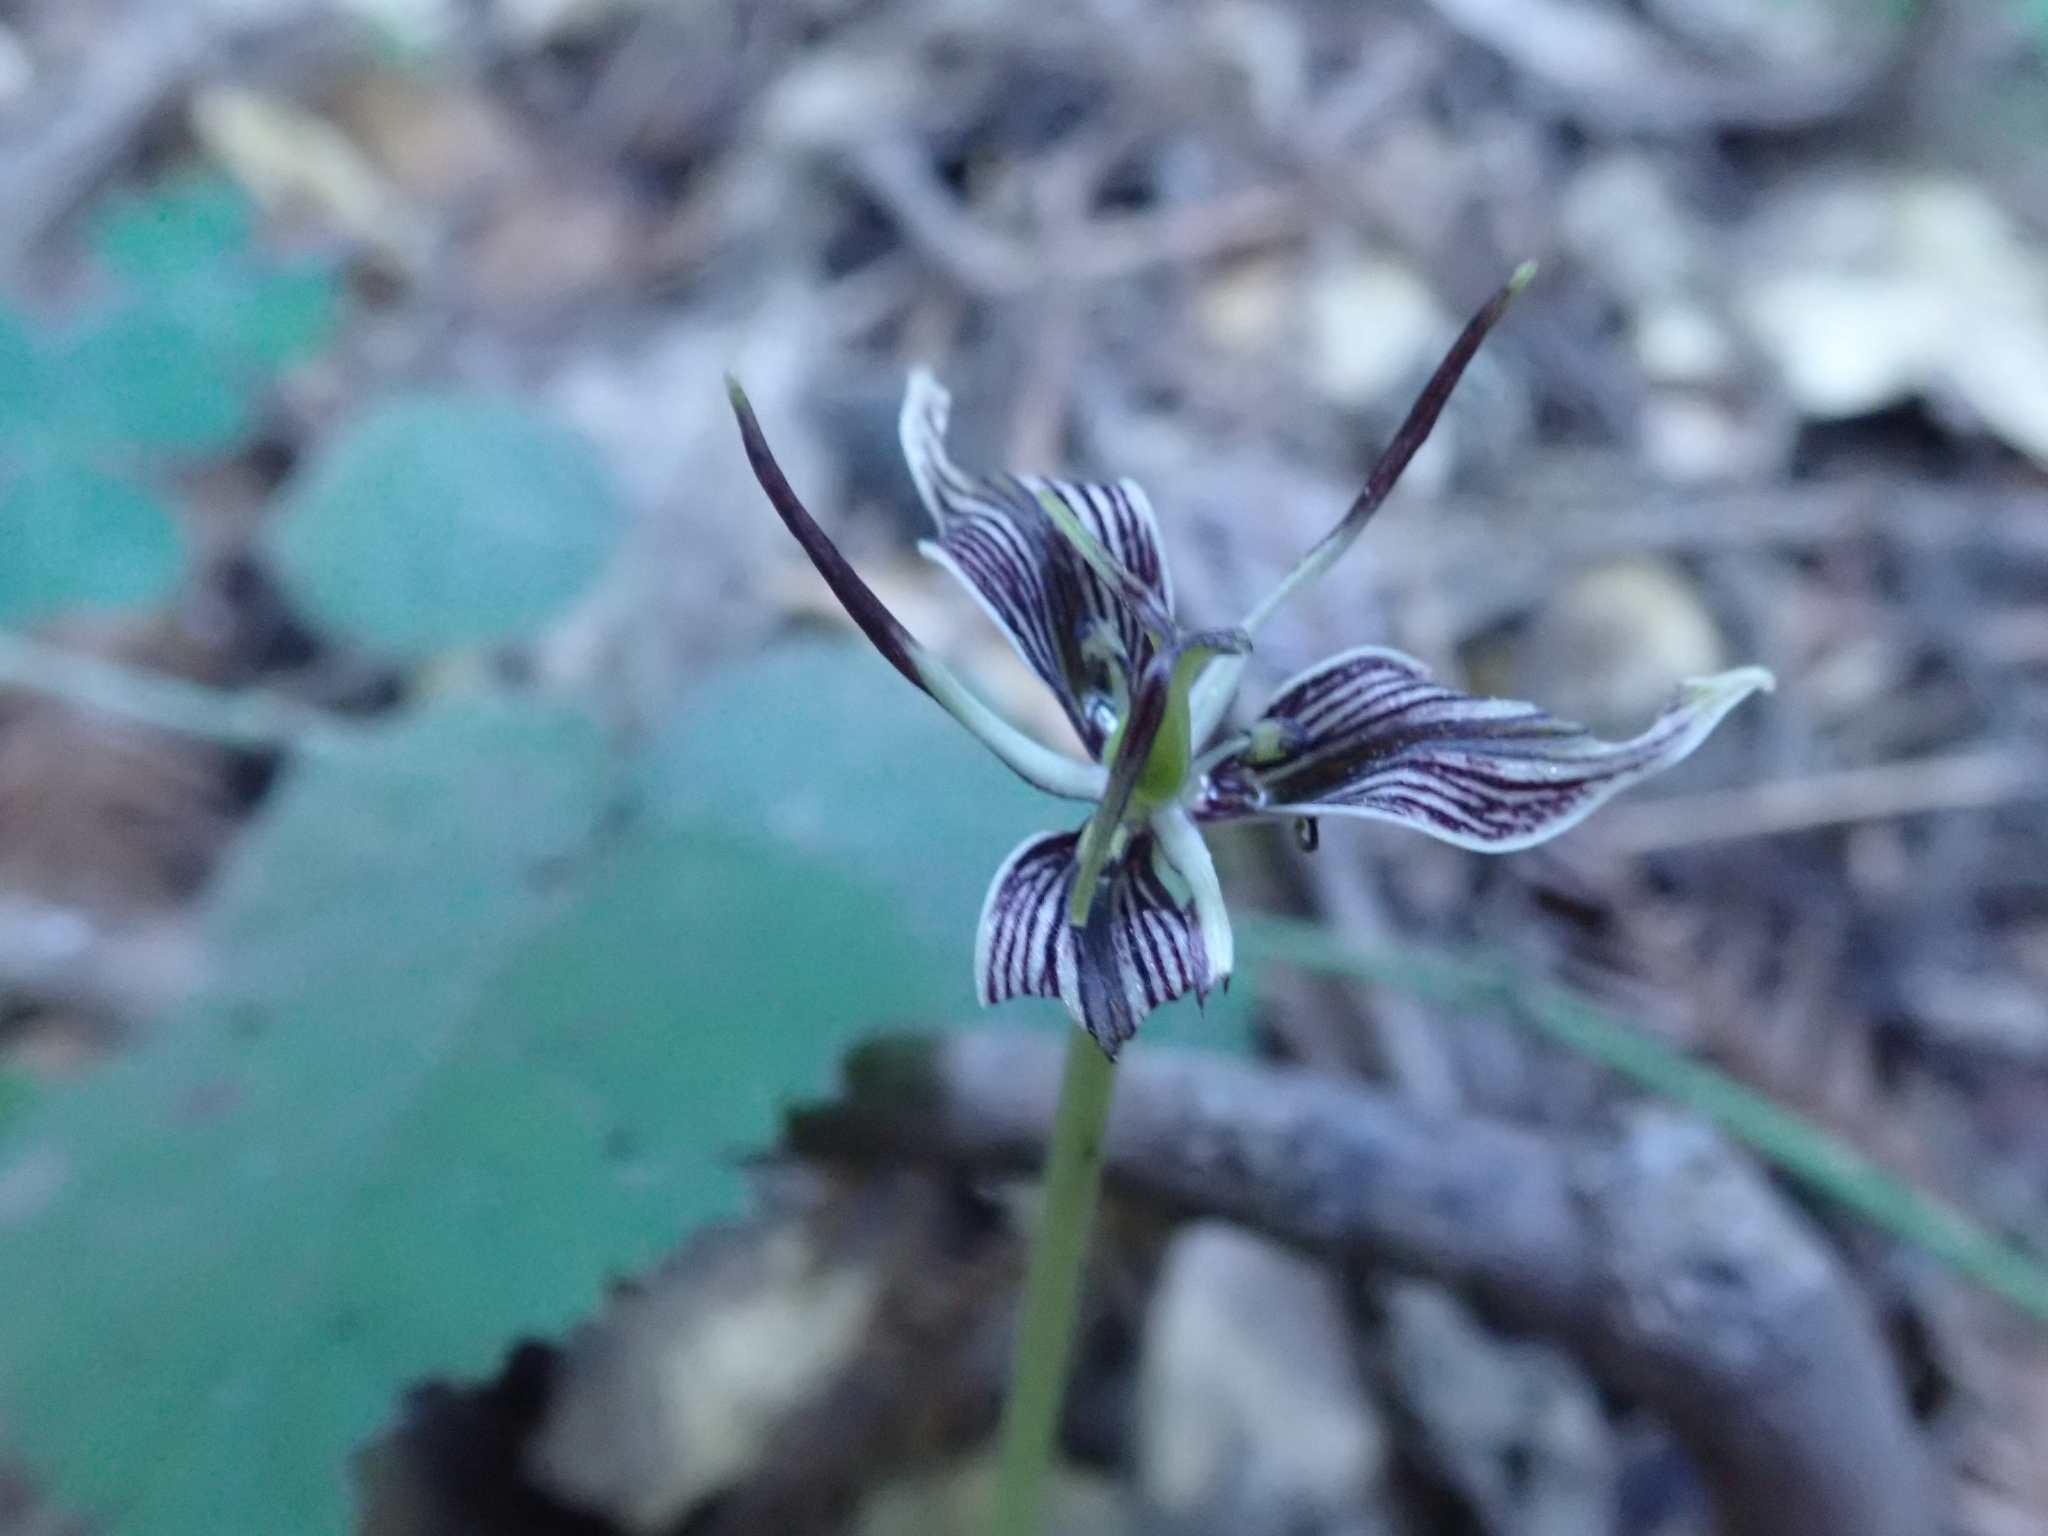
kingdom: Plantae
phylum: Tracheophyta
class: Liliopsida
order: Liliales
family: Liliaceae
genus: Scoliopus
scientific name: Scoliopus bigelovii
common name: Foetid adder's-tongue
